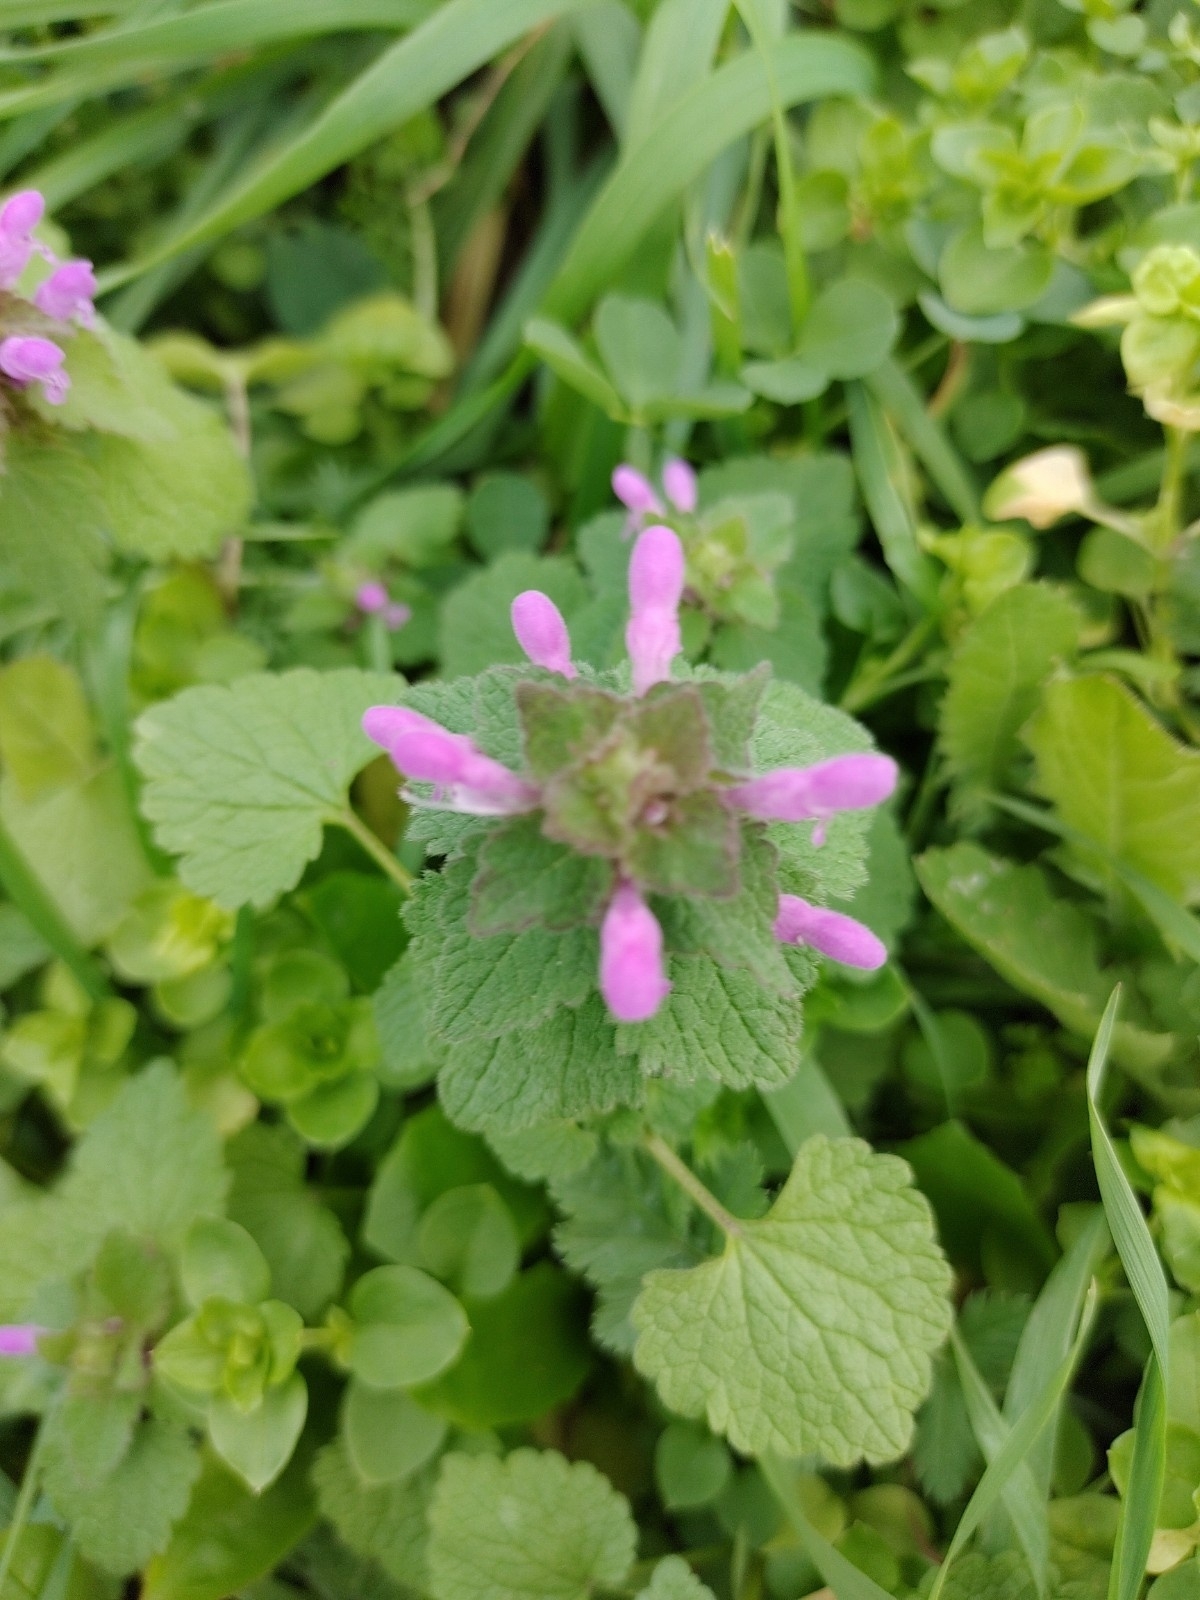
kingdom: Plantae
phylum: Tracheophyta
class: Magnoliopsida
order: Lamiales
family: Lamiaceae
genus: Lamium
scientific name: Lamium purpureum
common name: Red dead-nettle
